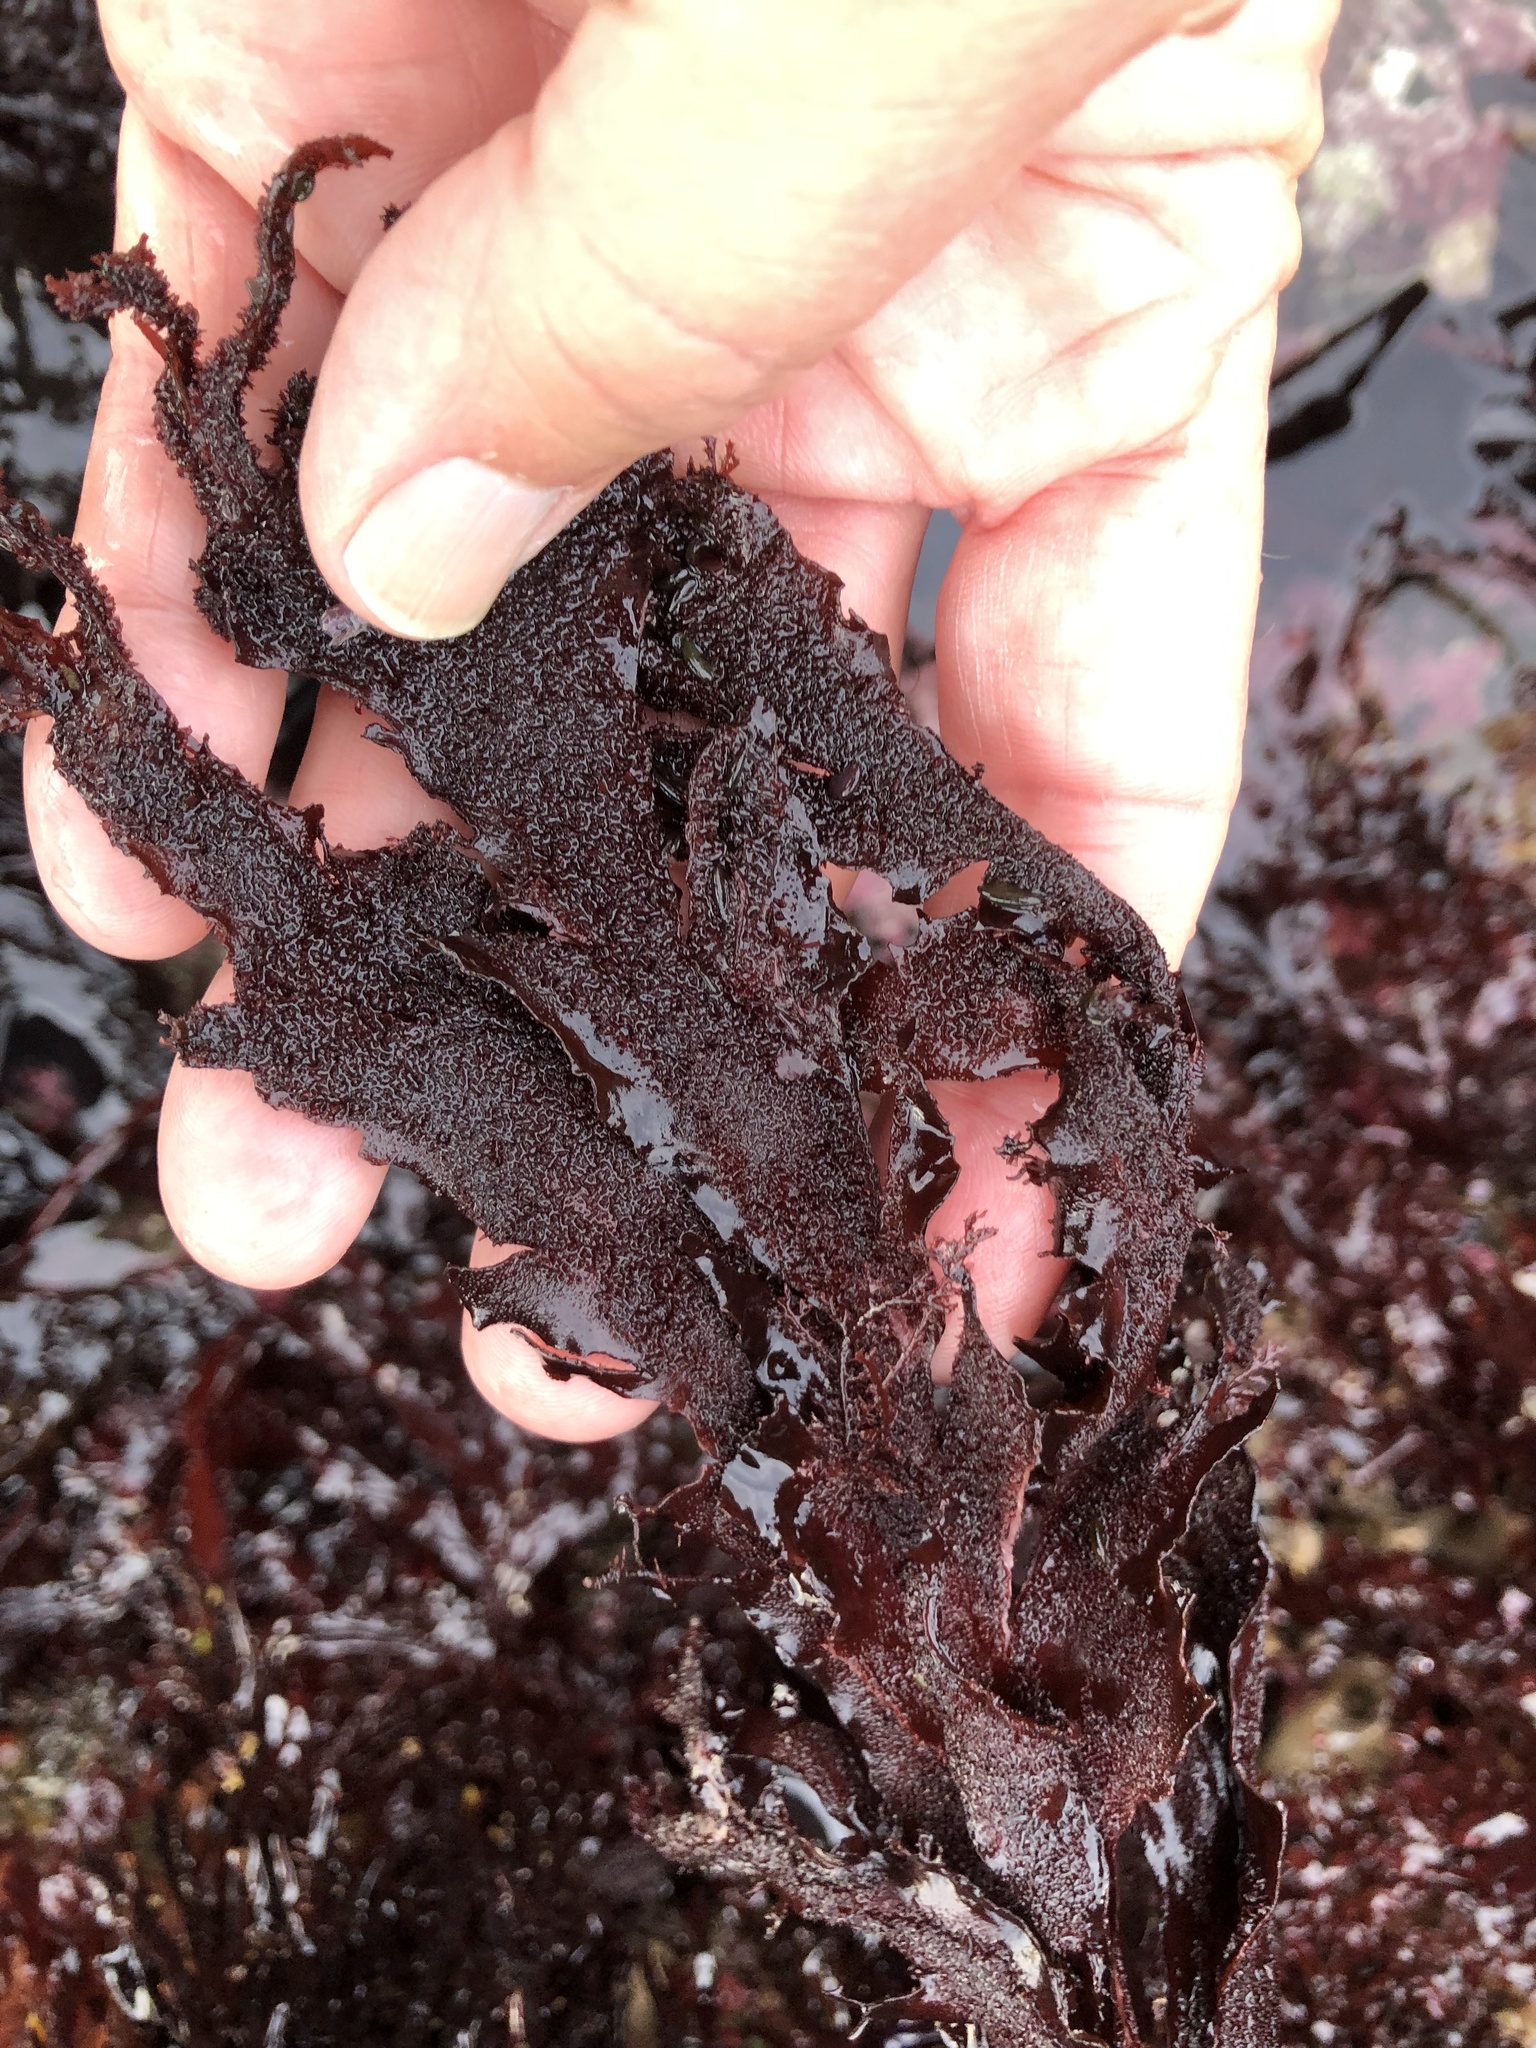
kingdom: Plantae
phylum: Rhodophyta
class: Florideophyceae
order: Gigartinales
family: Kallymeniaceae
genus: Erythrophyllum
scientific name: Erythrophyllum delesserioides
